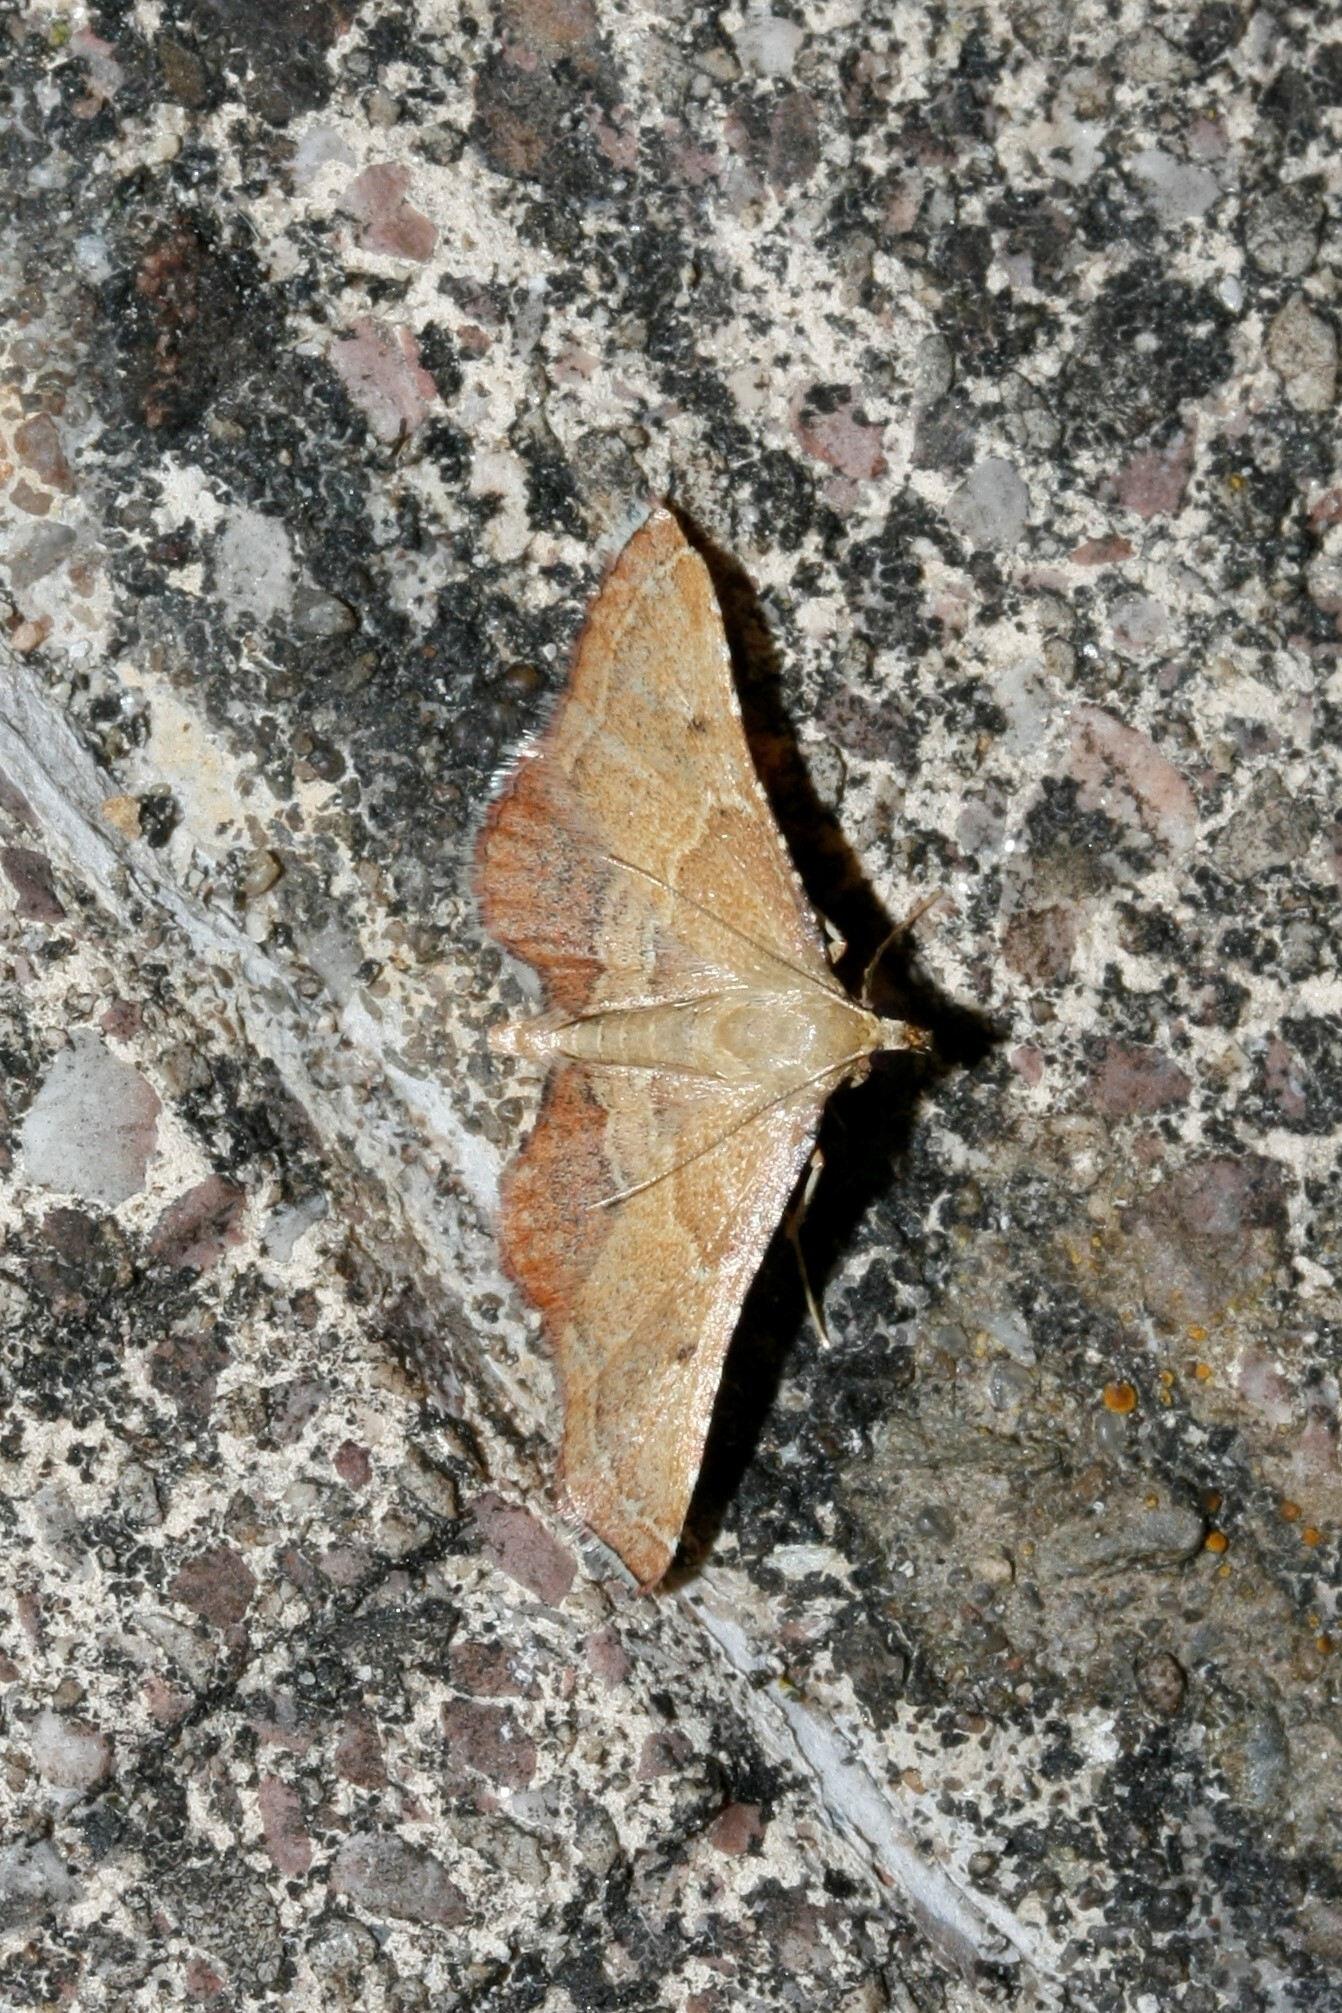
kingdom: Animalia
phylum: Arthropoda
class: Insecta
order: Lepidoptera
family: Pyralidae
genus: Endotricha
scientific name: Endotricha flammealis
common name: Rosy tabby
